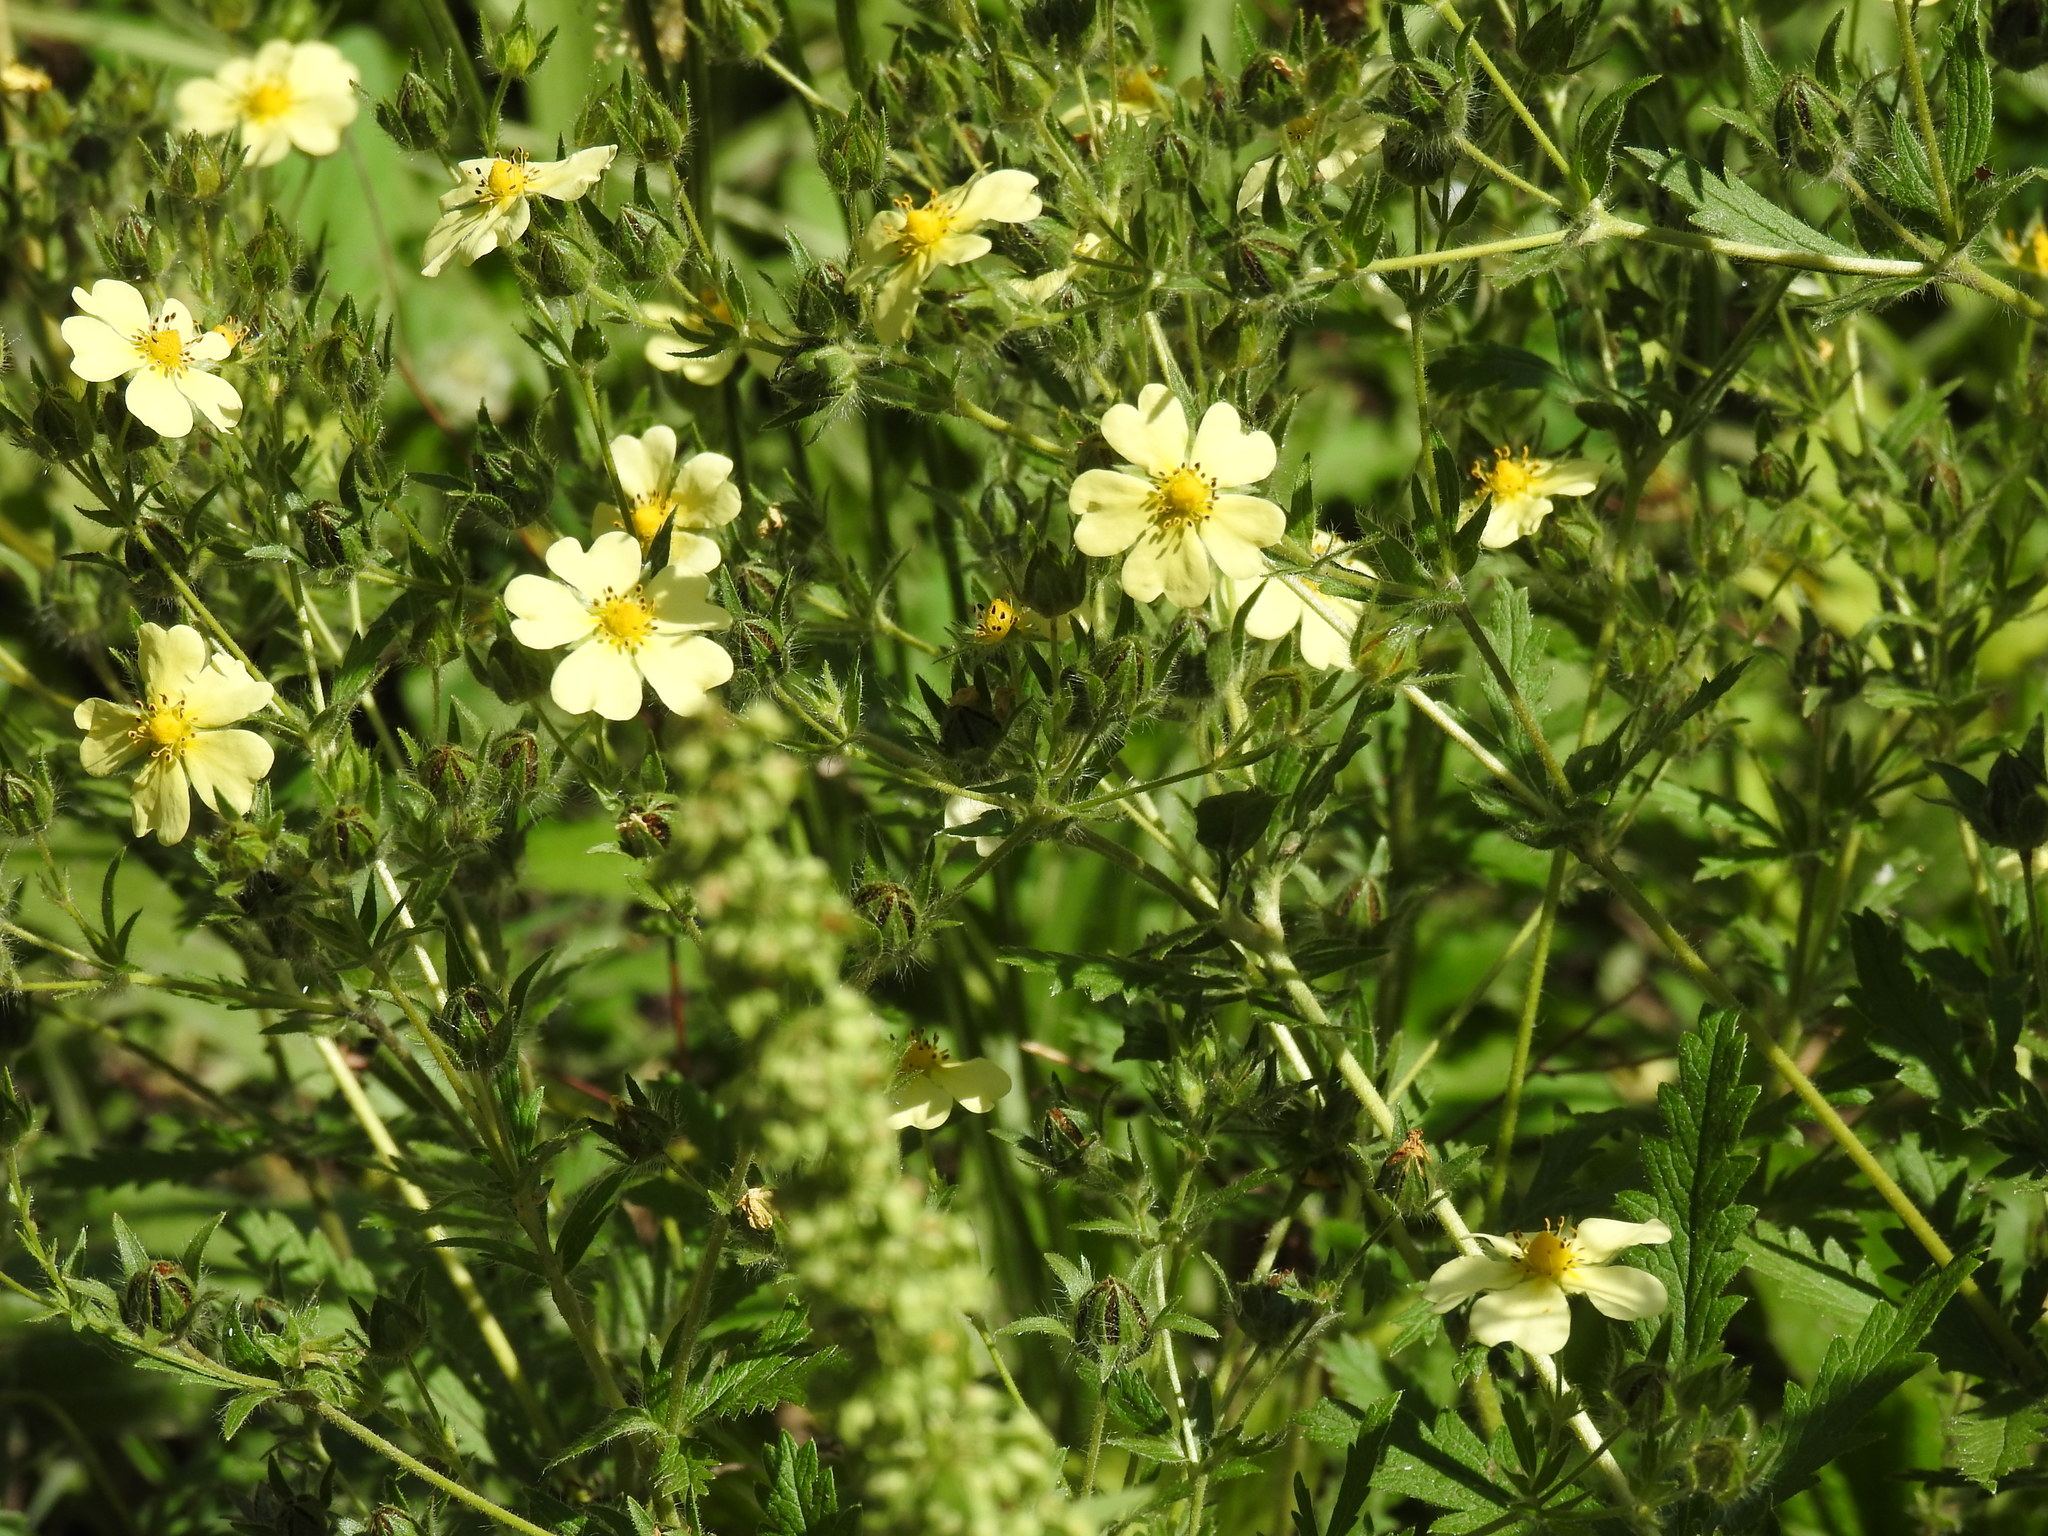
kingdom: Plantae
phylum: Tracheophyta
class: Magnoliopsida
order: Rosales
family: Rosaceae
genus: Potentilla
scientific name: Potentilla recta
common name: Sulphur cinquefoil
